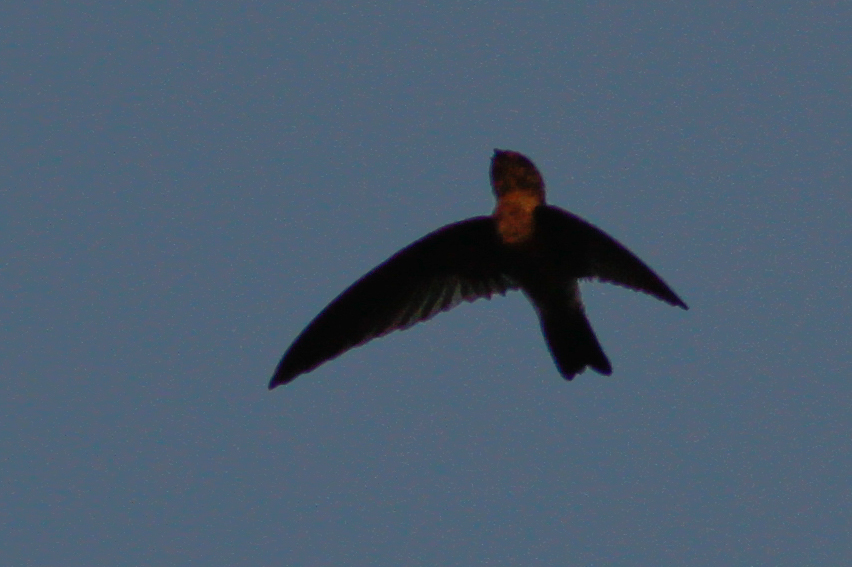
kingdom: Animalia
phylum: Chordata
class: Aves
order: Apodiformes
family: Apodidae
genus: Aerodramus
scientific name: Aerodramus germani
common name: Germain's swiftlet
